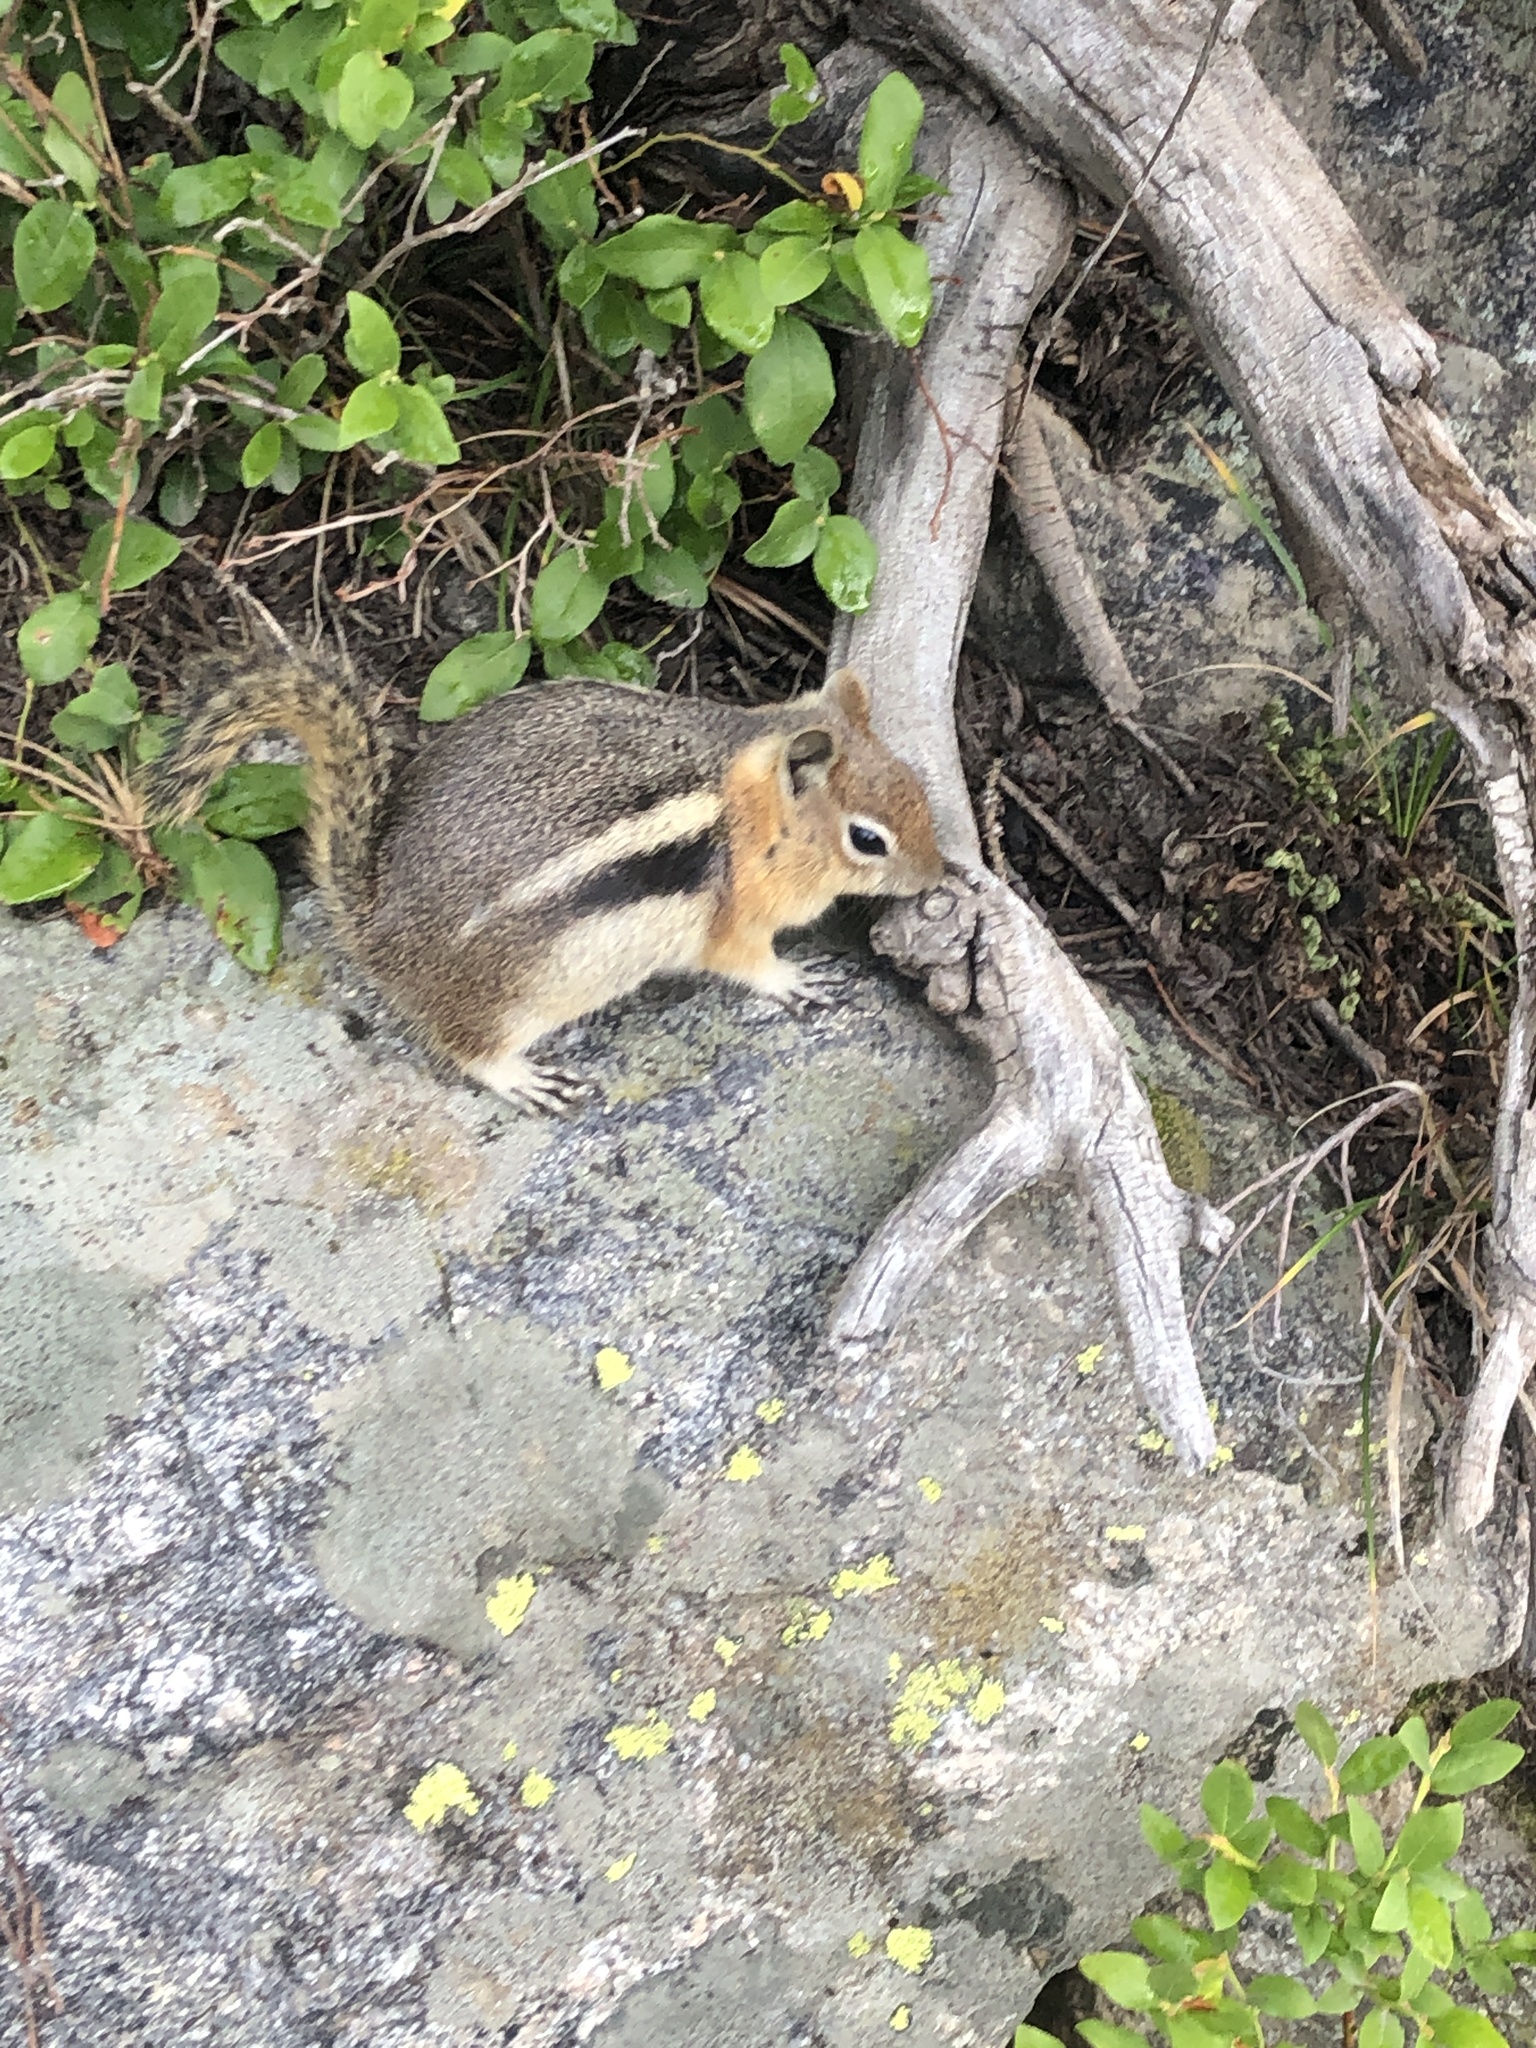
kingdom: Animalia
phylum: Chordata
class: Mammalia
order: Rodentia
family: Sciuridae
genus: Callospermophilus
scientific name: Callospermophilus lateralis
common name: Golden-mantled ground squirrel
